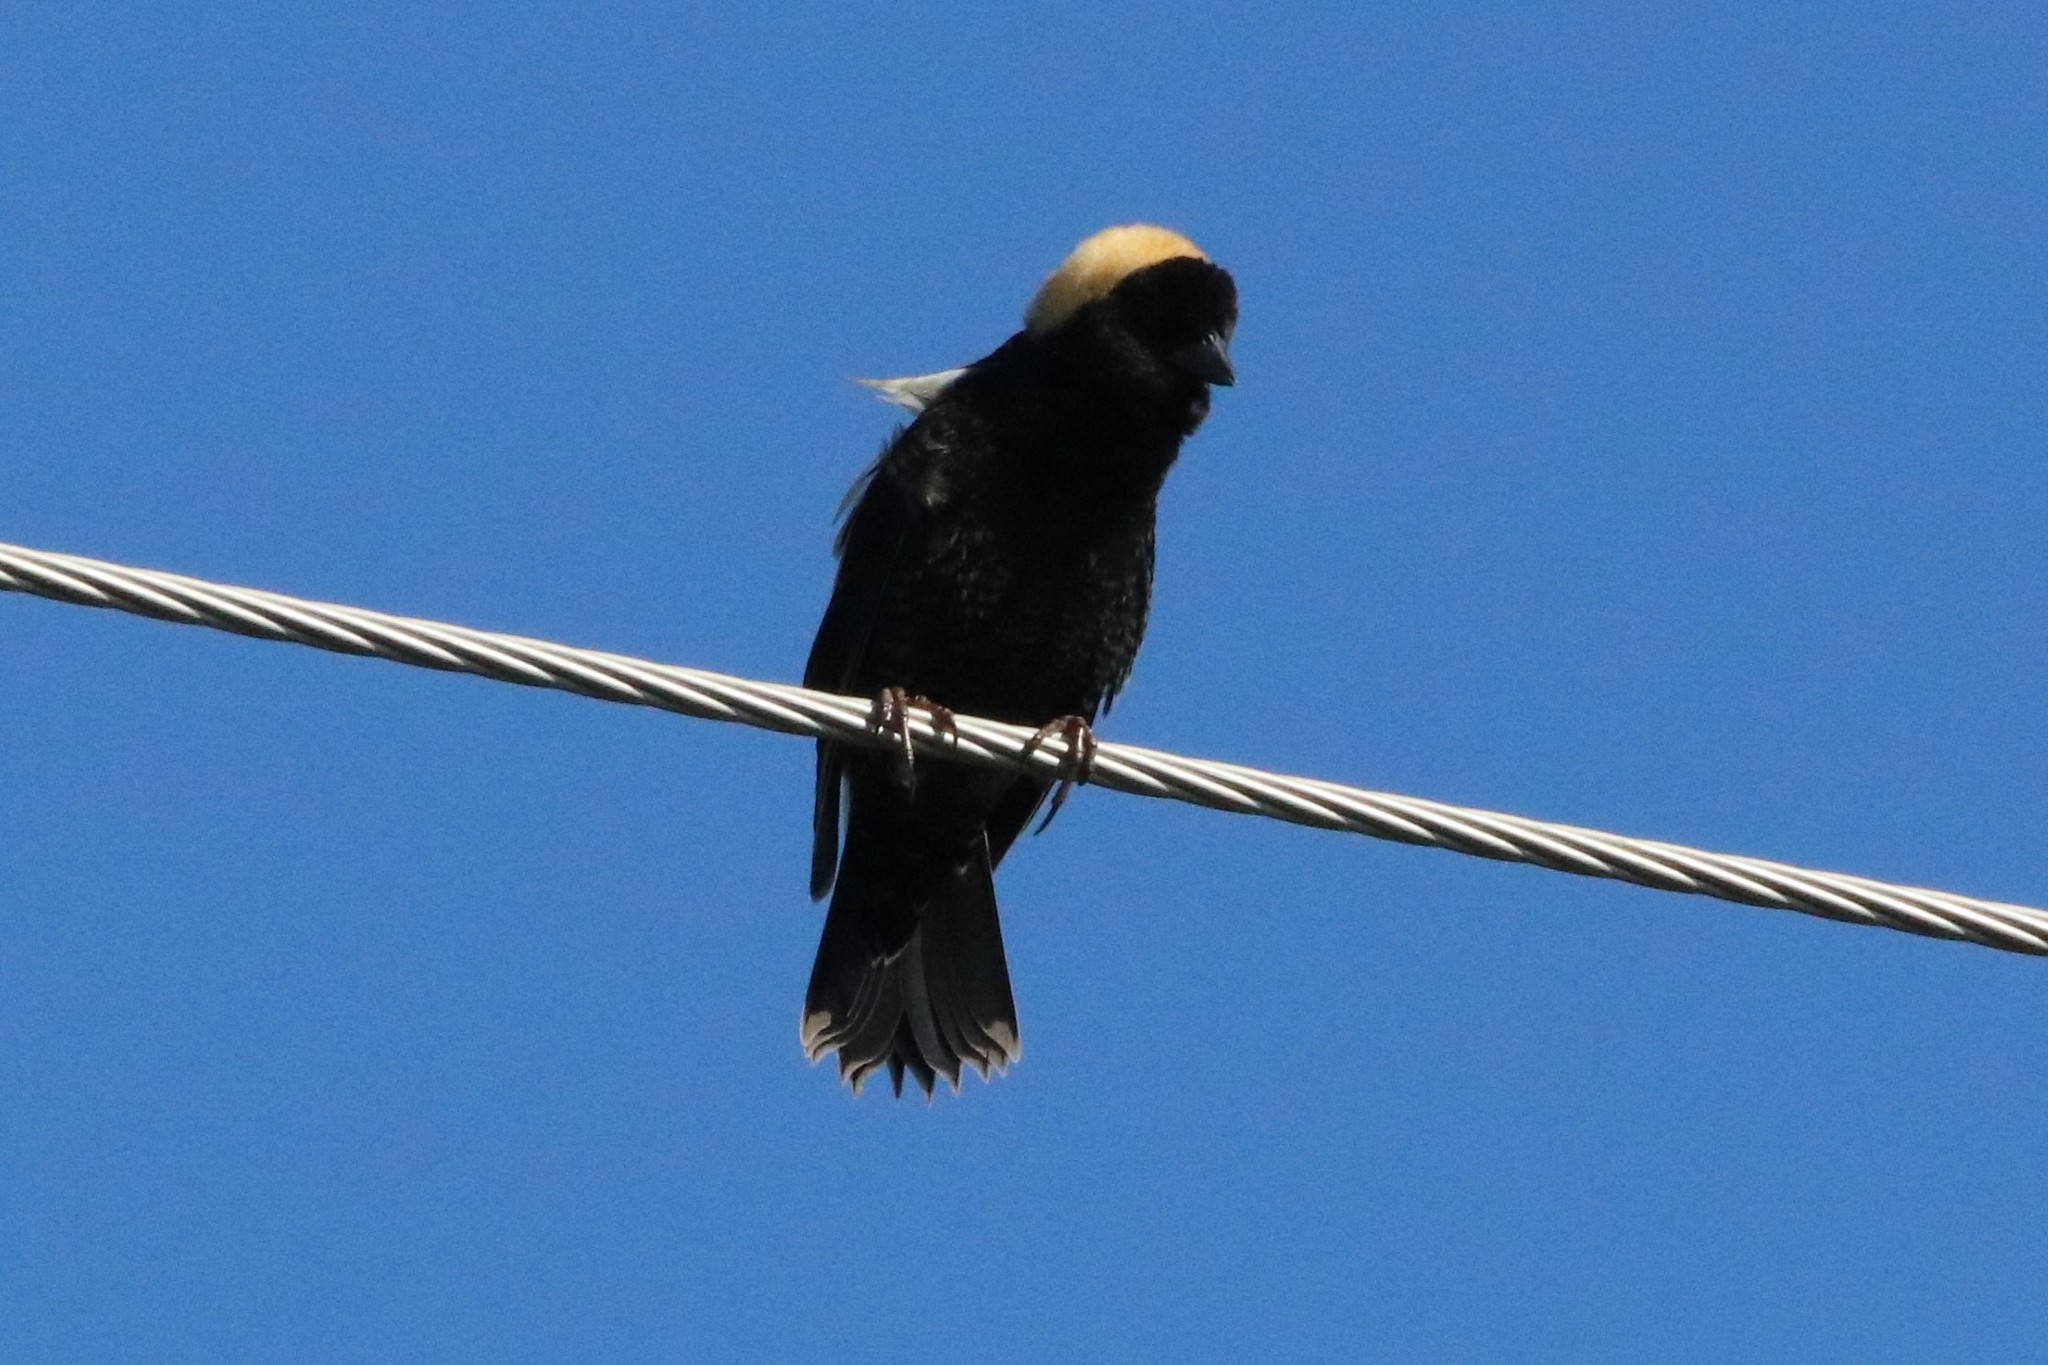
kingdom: Animalia
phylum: Chordata
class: Aves
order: Passeriformes
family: Icteridae
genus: Dolichonyx
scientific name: Dolichonyx oryzivorus
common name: Bobolink
